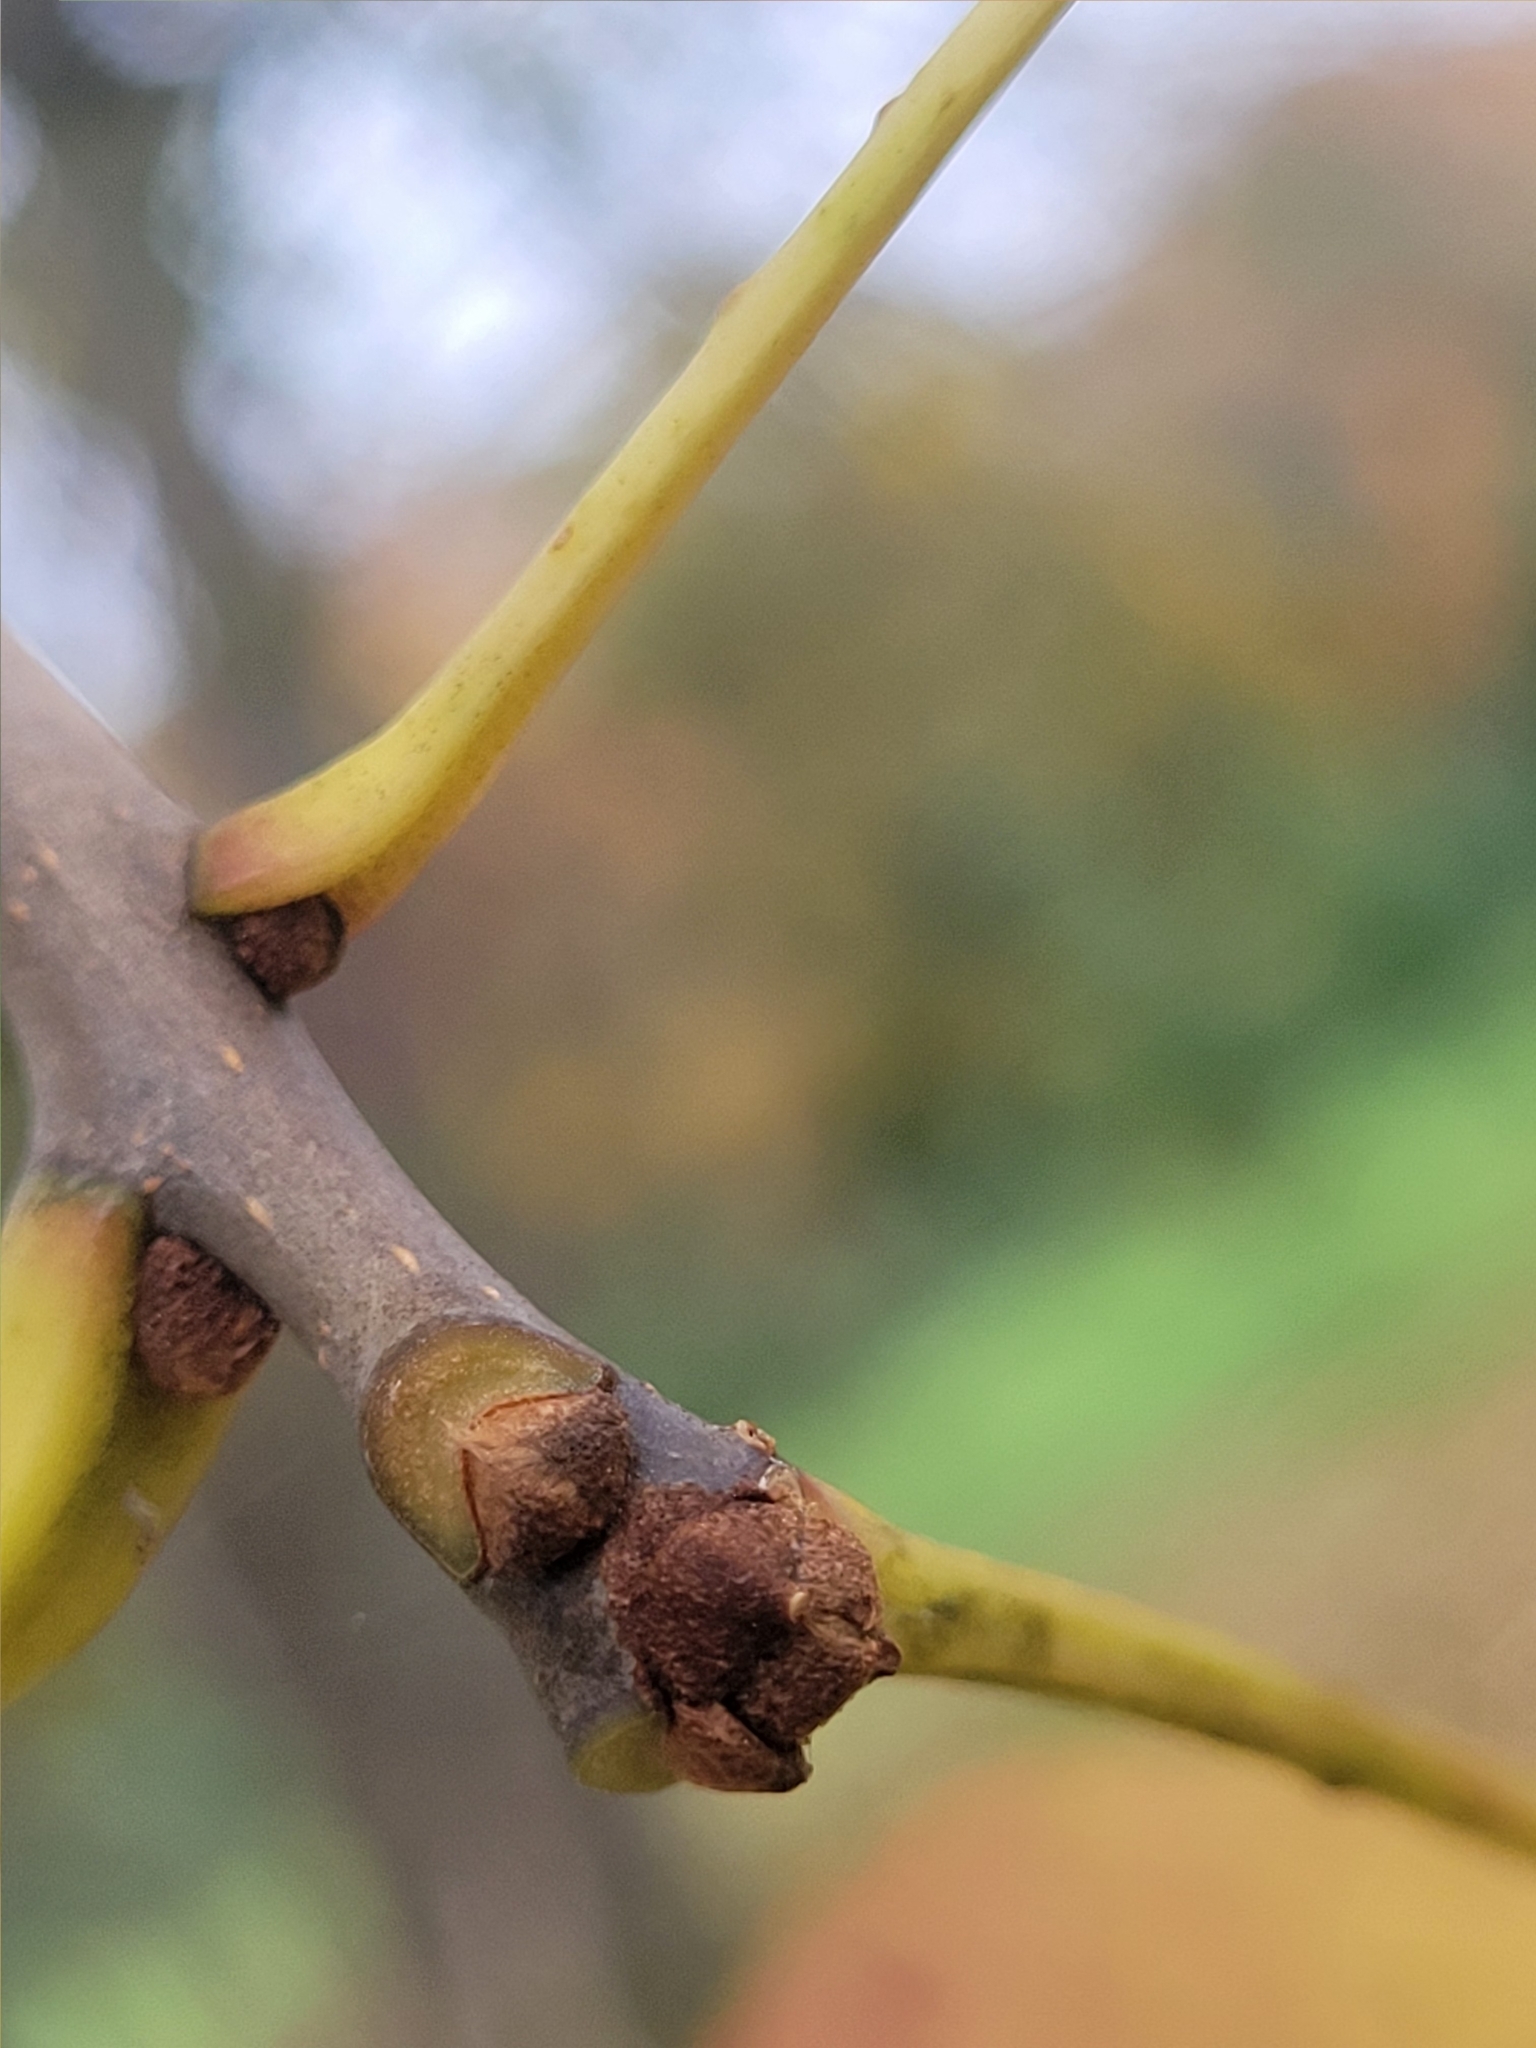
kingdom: Plantae
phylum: Tracheophyta
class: Magnoliopsida
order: Lamiales
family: Oleaceae
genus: Fraxinus
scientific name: Fraxinus americana
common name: White ash
